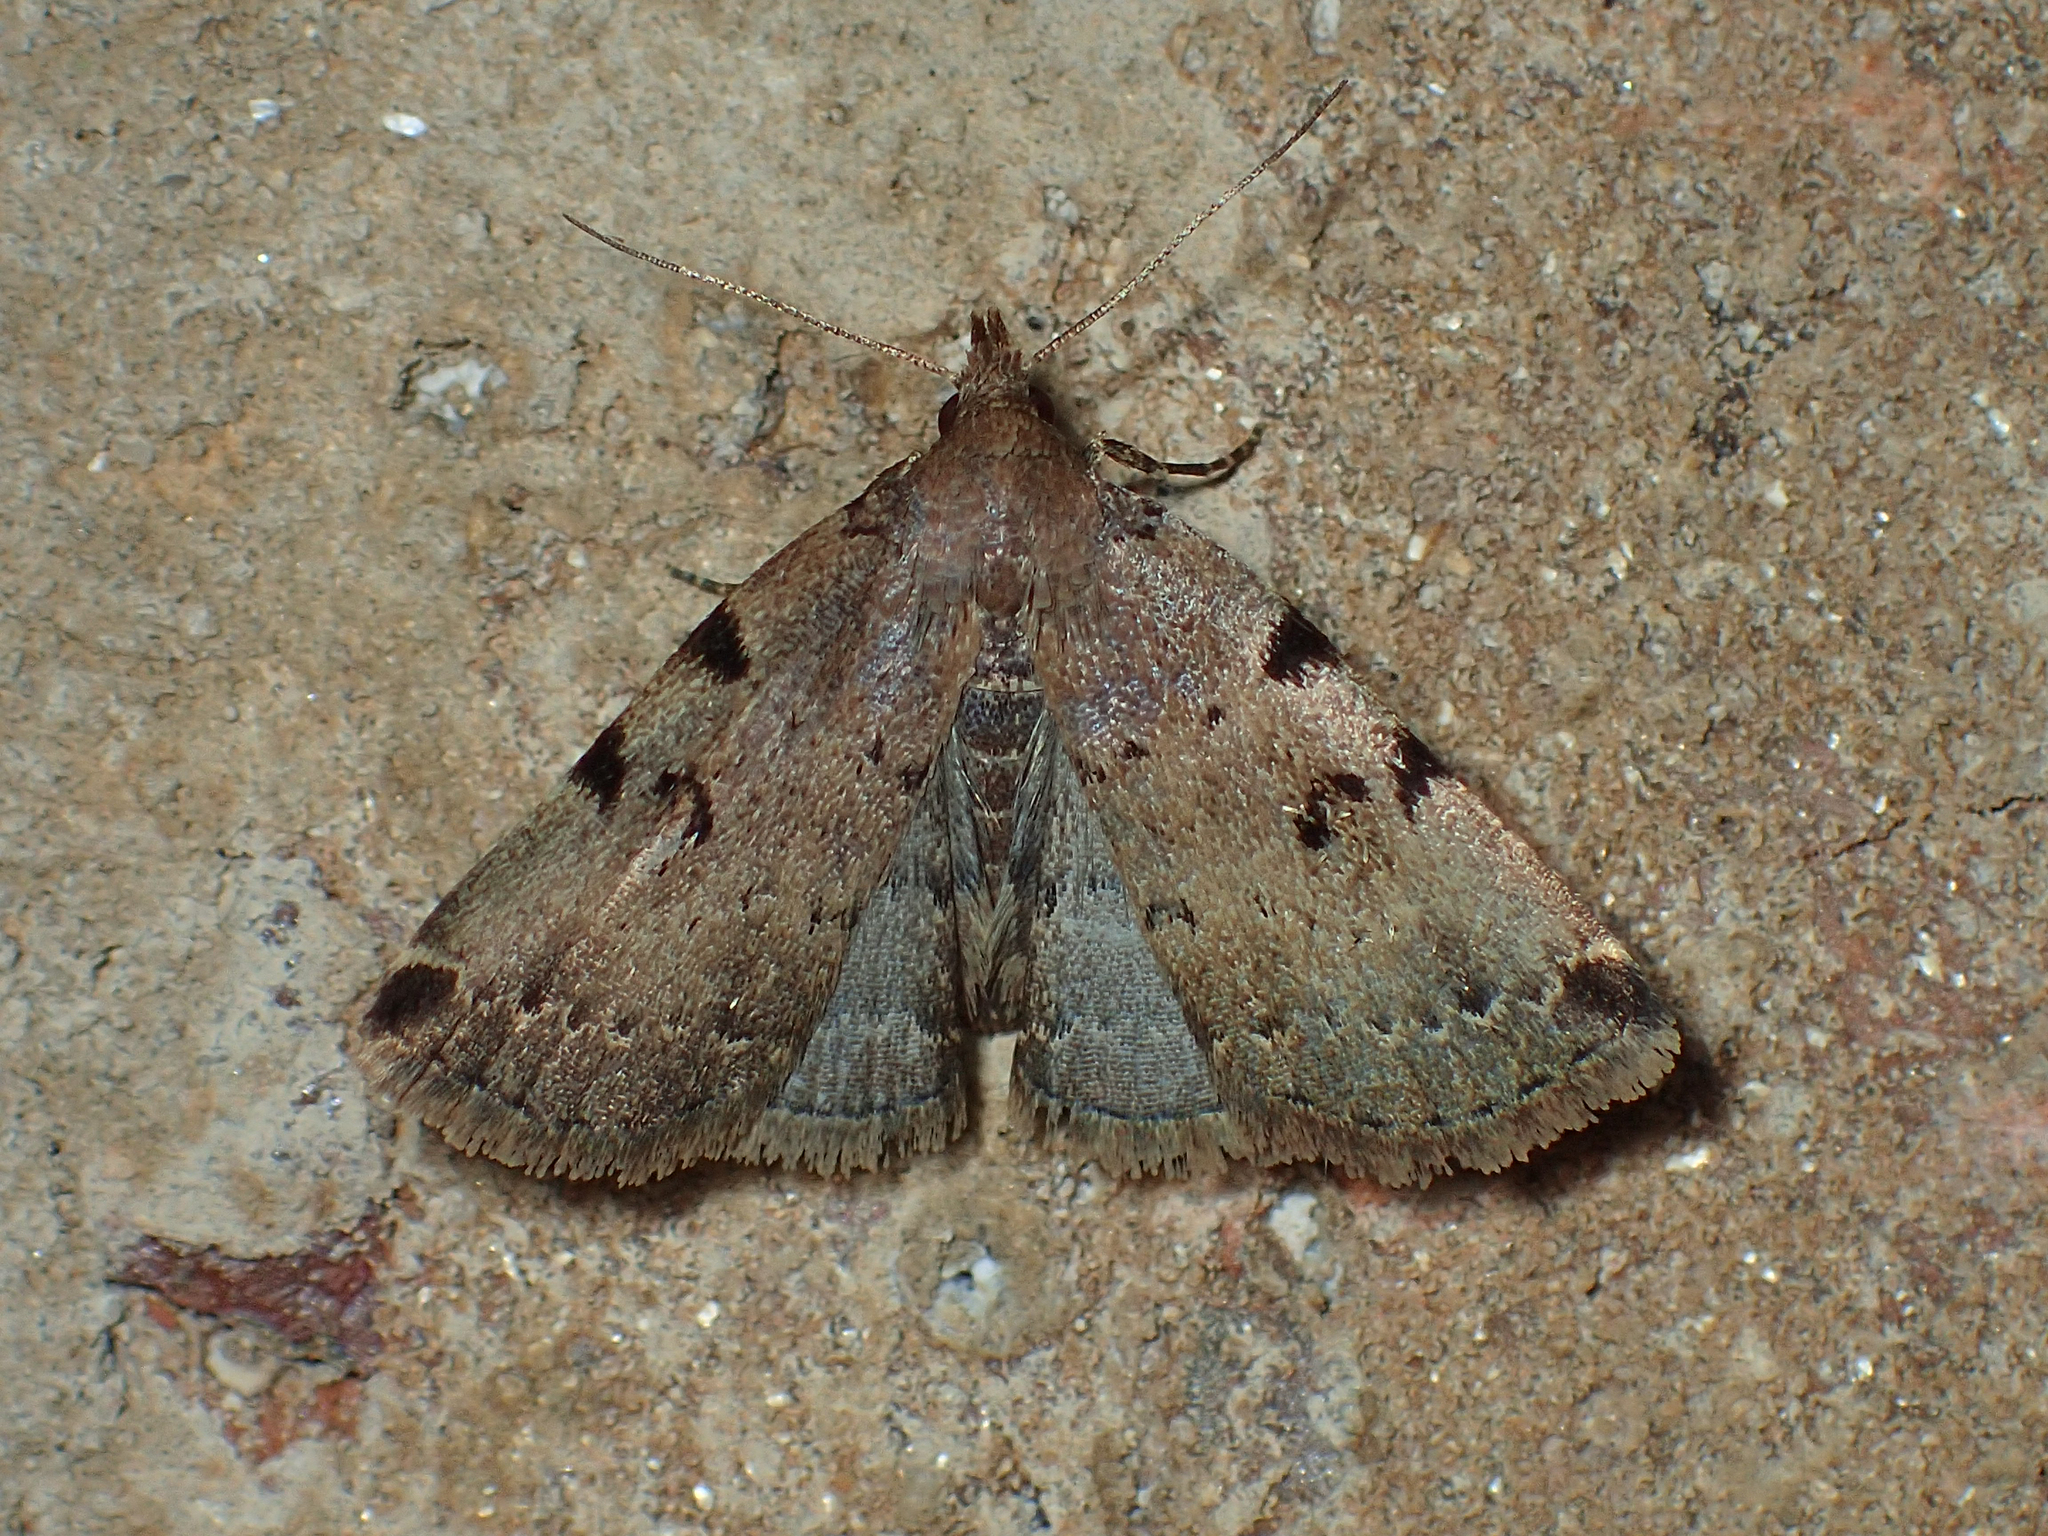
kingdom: Animalia
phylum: Arthropoda
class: Insecta
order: Lepidoptera
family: Erebidae
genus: Zanclognatha
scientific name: Zanclognatha lituralis
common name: Lettered fan-foot
